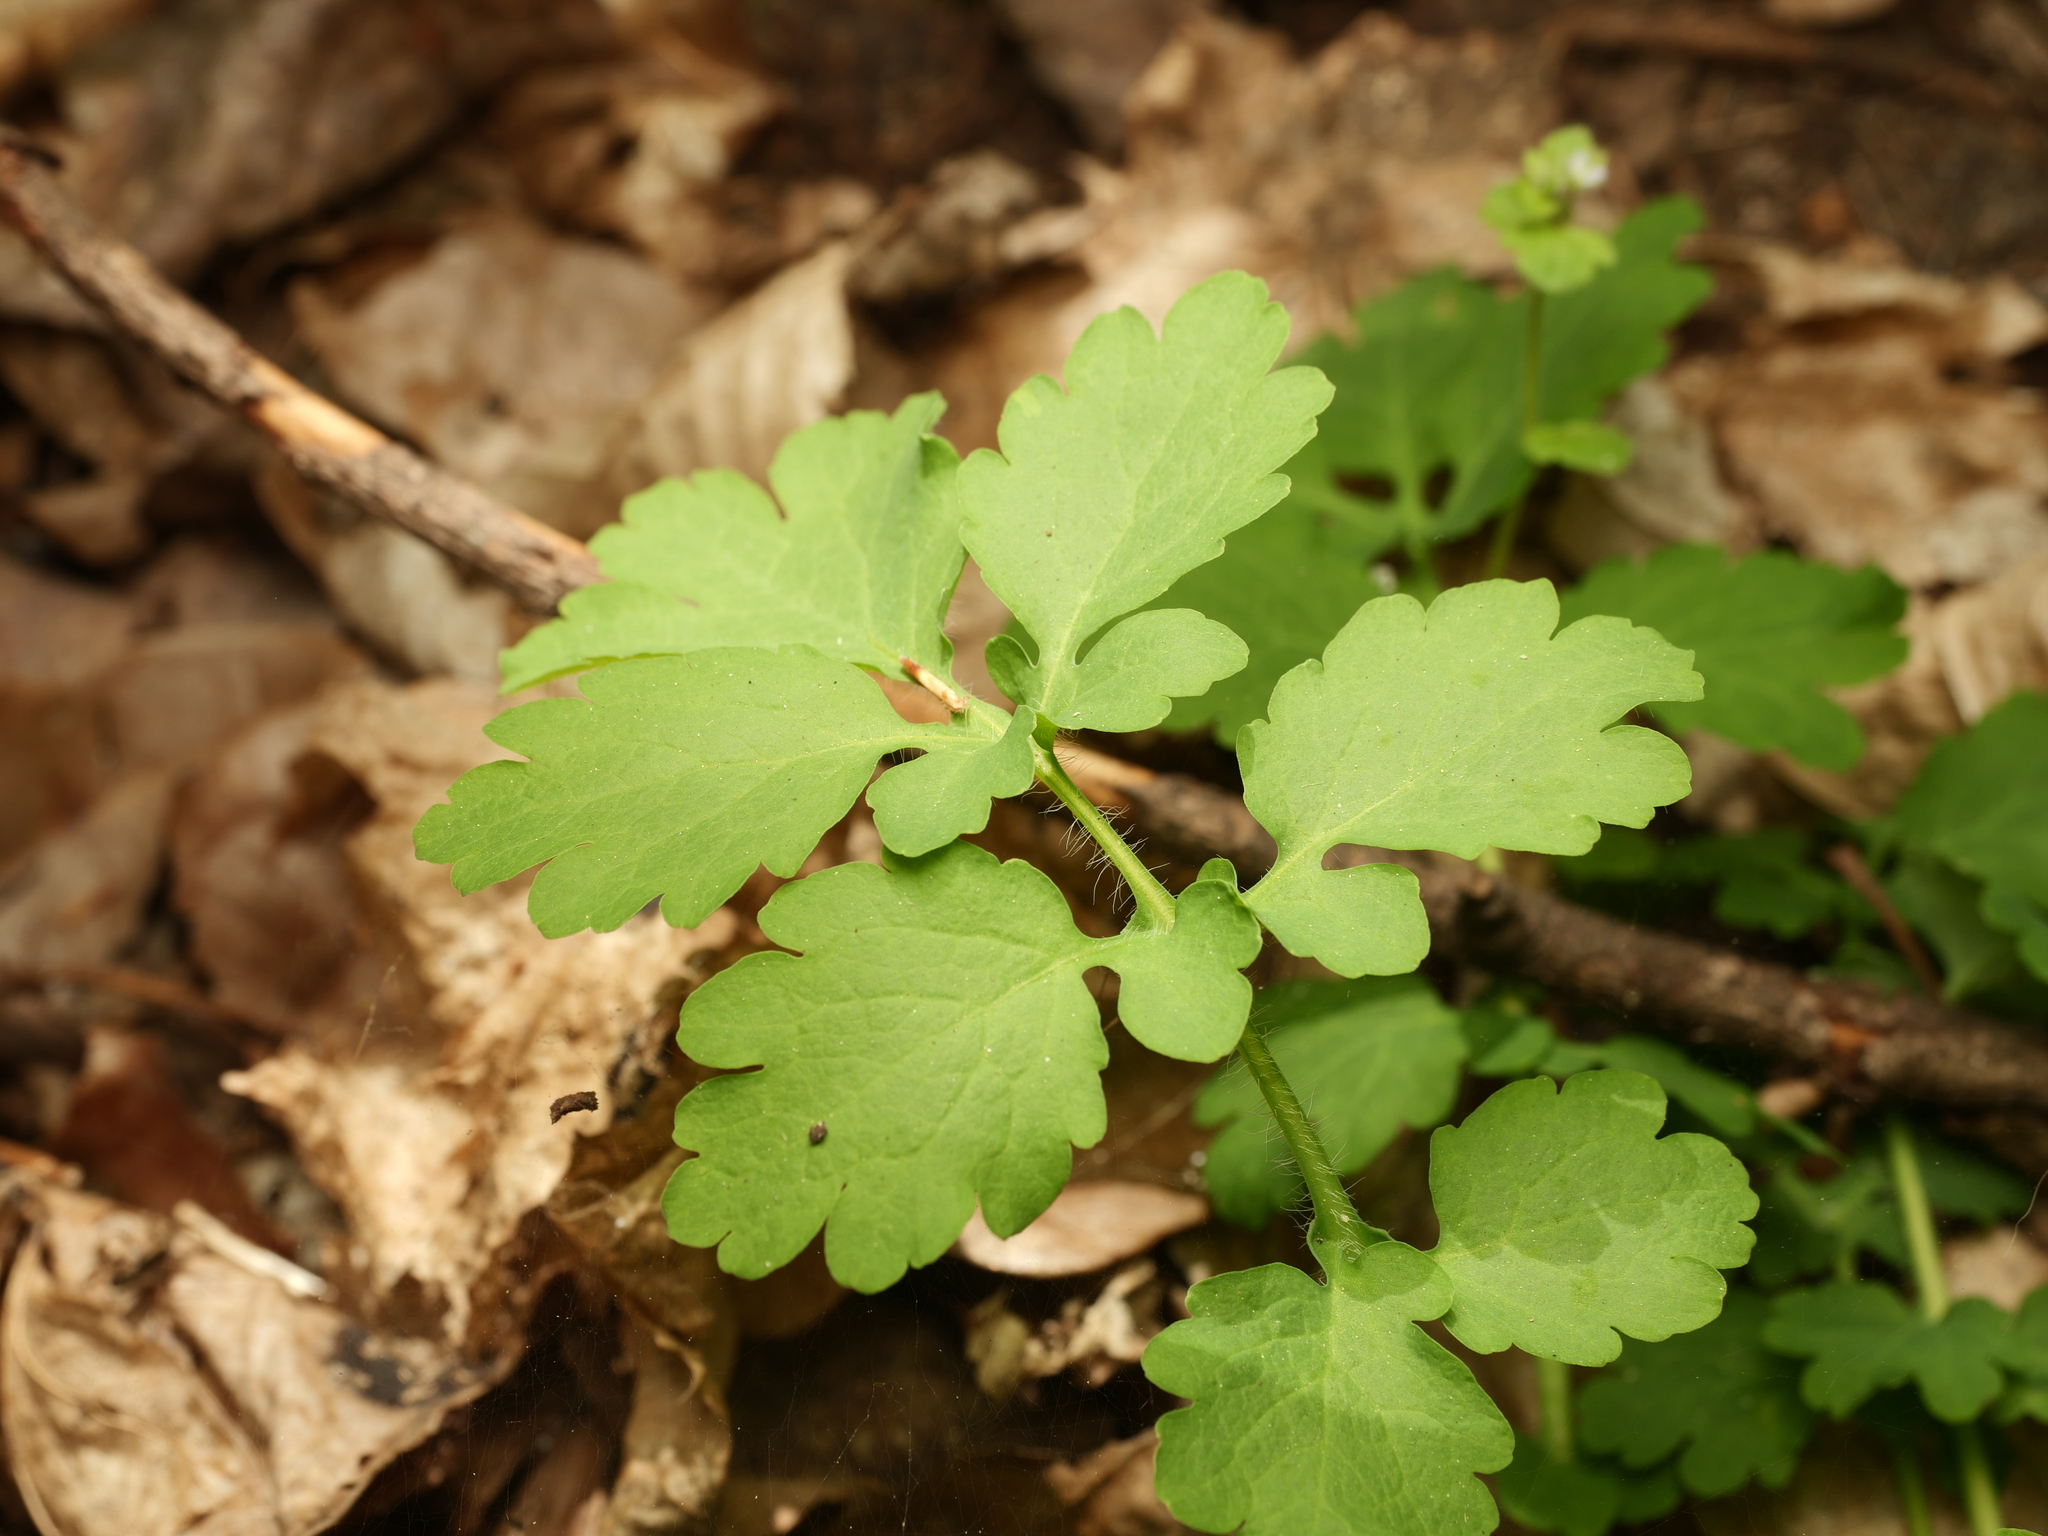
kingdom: Plantae
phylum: Tracheophyta
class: Magnoliopsida
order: Ranunculales
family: Papaveraceae
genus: Chelidonium
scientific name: Chelidonium majus
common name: Greater celandine
